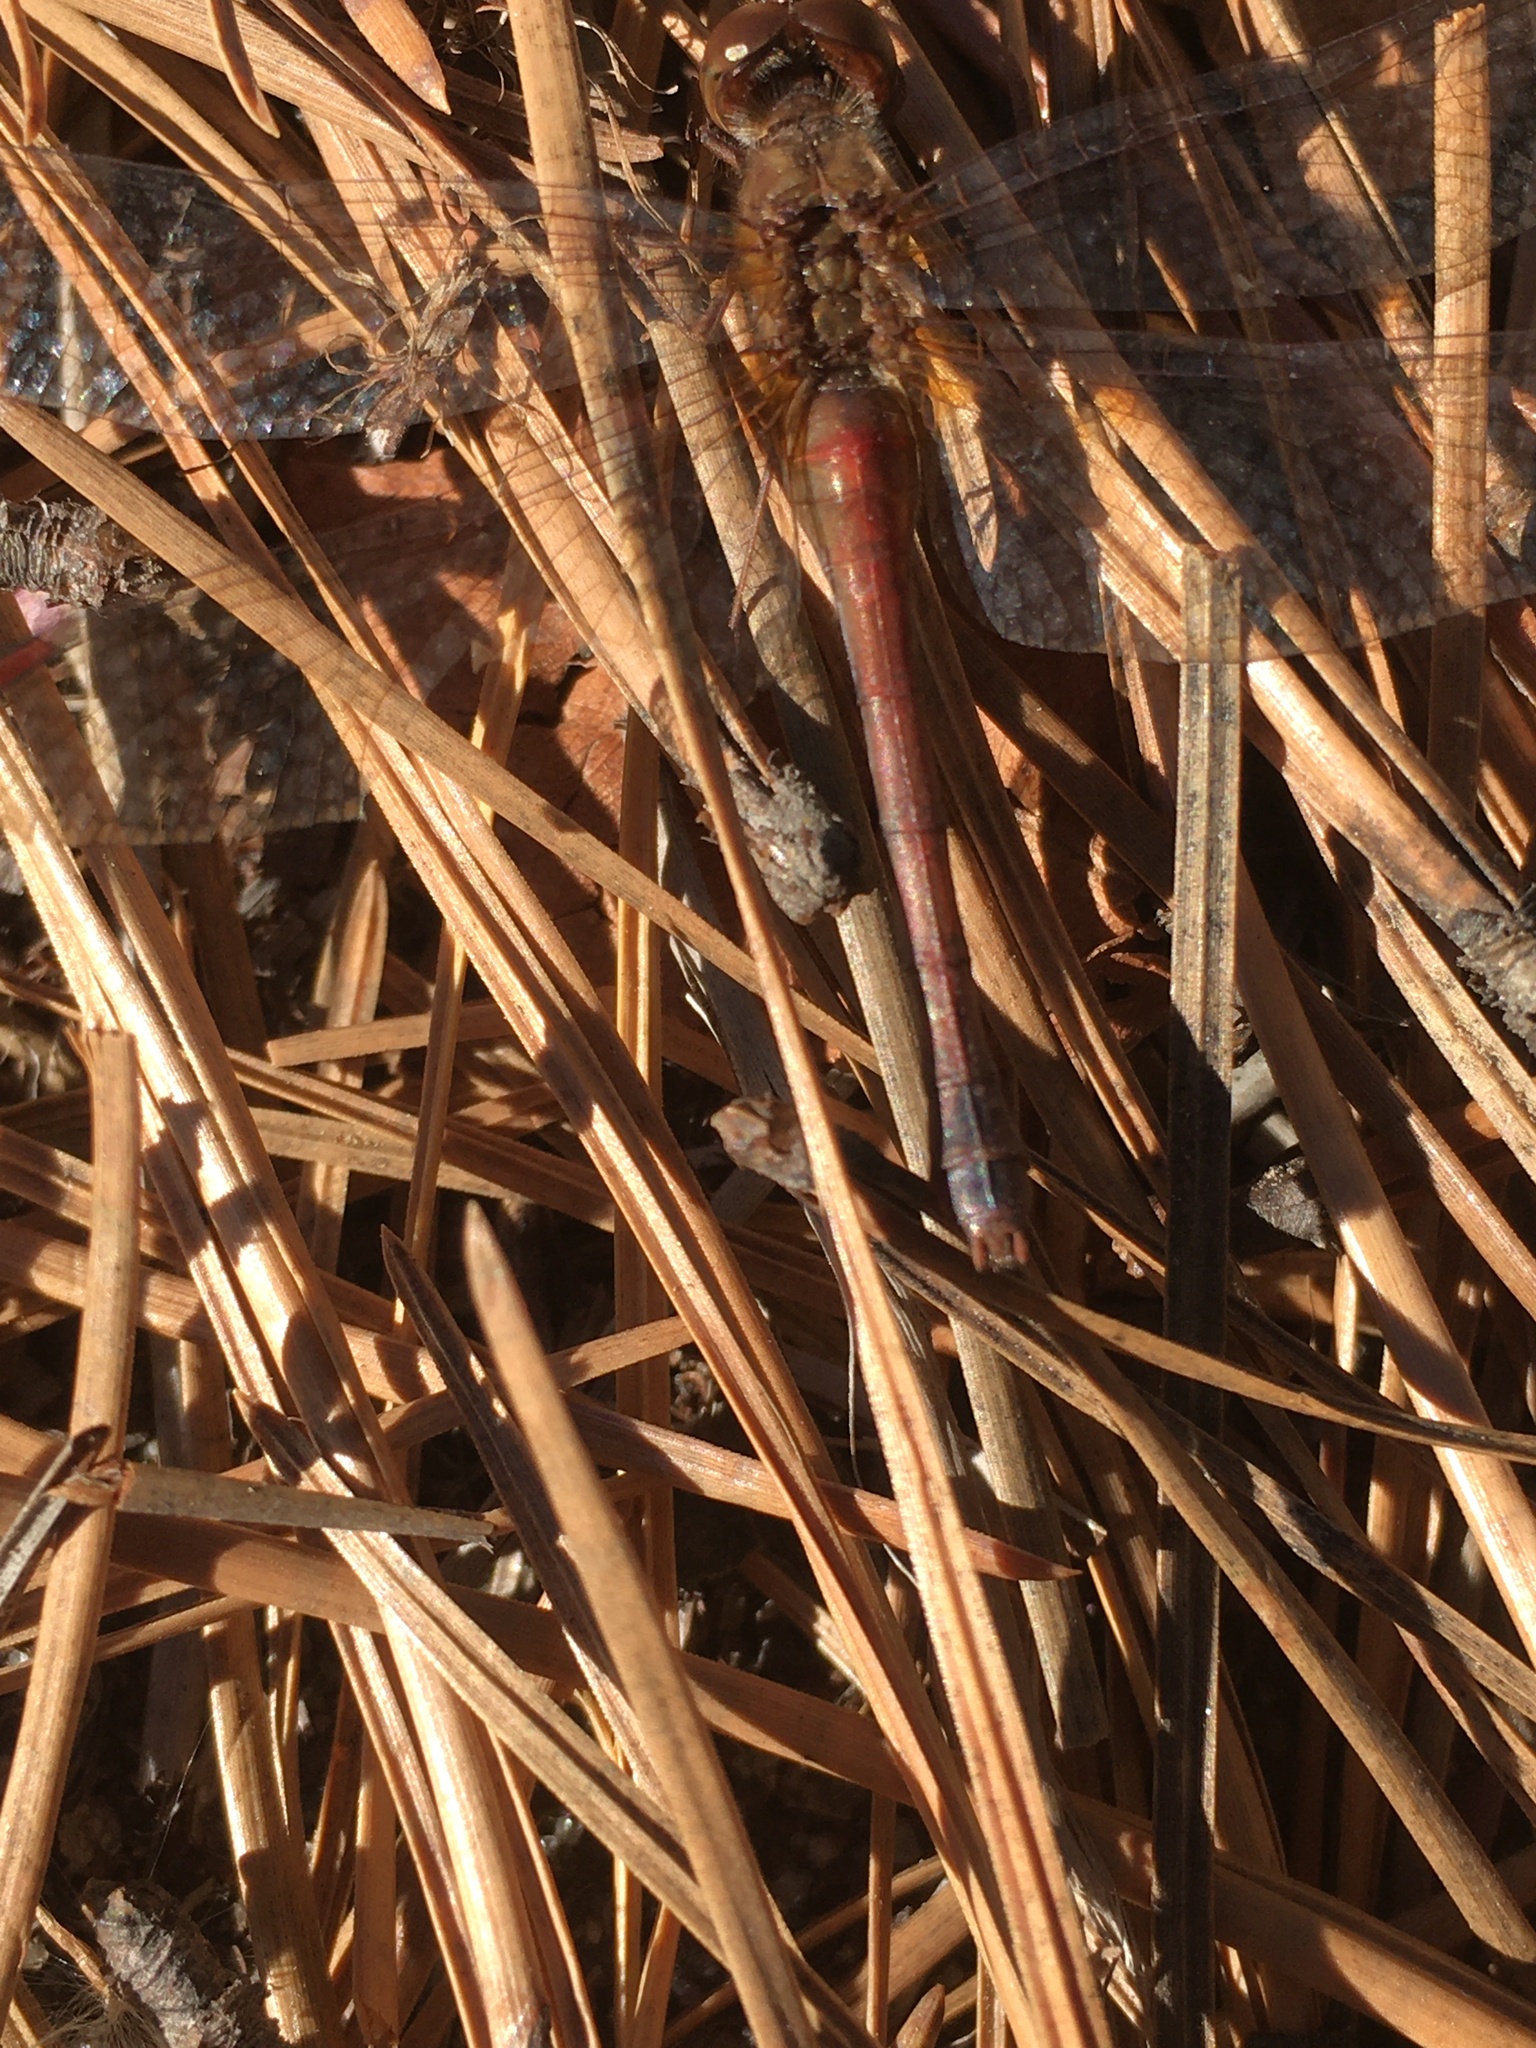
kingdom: Animalia
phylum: Arthropoda
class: Insecta
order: Odonata
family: Libellulidae
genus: Sympetrum
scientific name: Sympetrum vicinum
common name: Autumn meadowhawk
